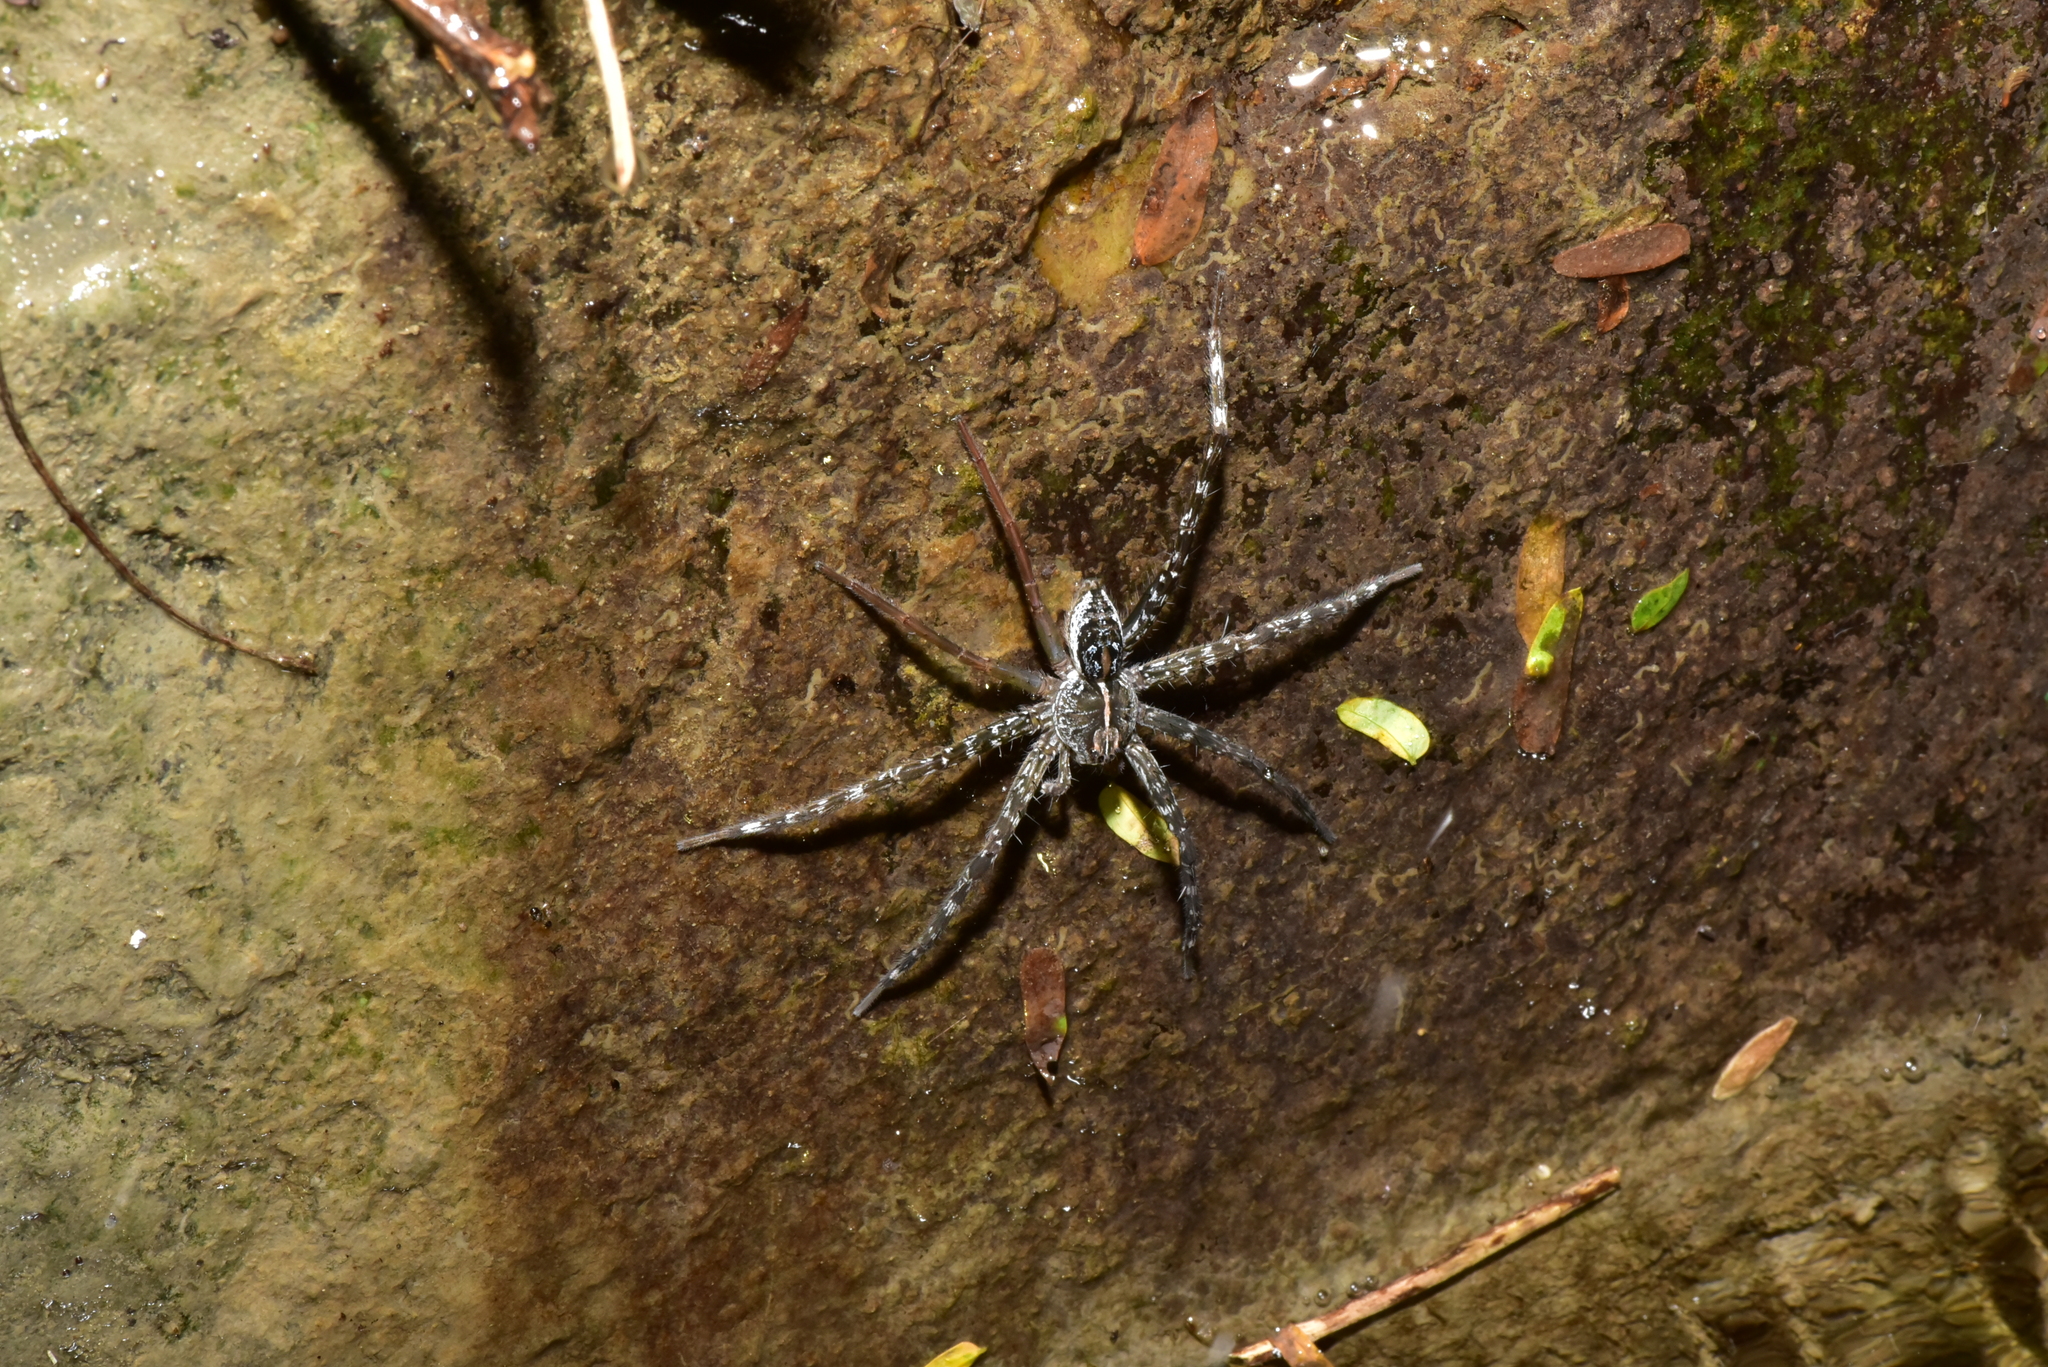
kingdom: Animalia
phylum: Arthropoda
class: Arachnida
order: Araneae
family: Pisauridae
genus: Dolomedes
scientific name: Dolomedes mizhoanus
